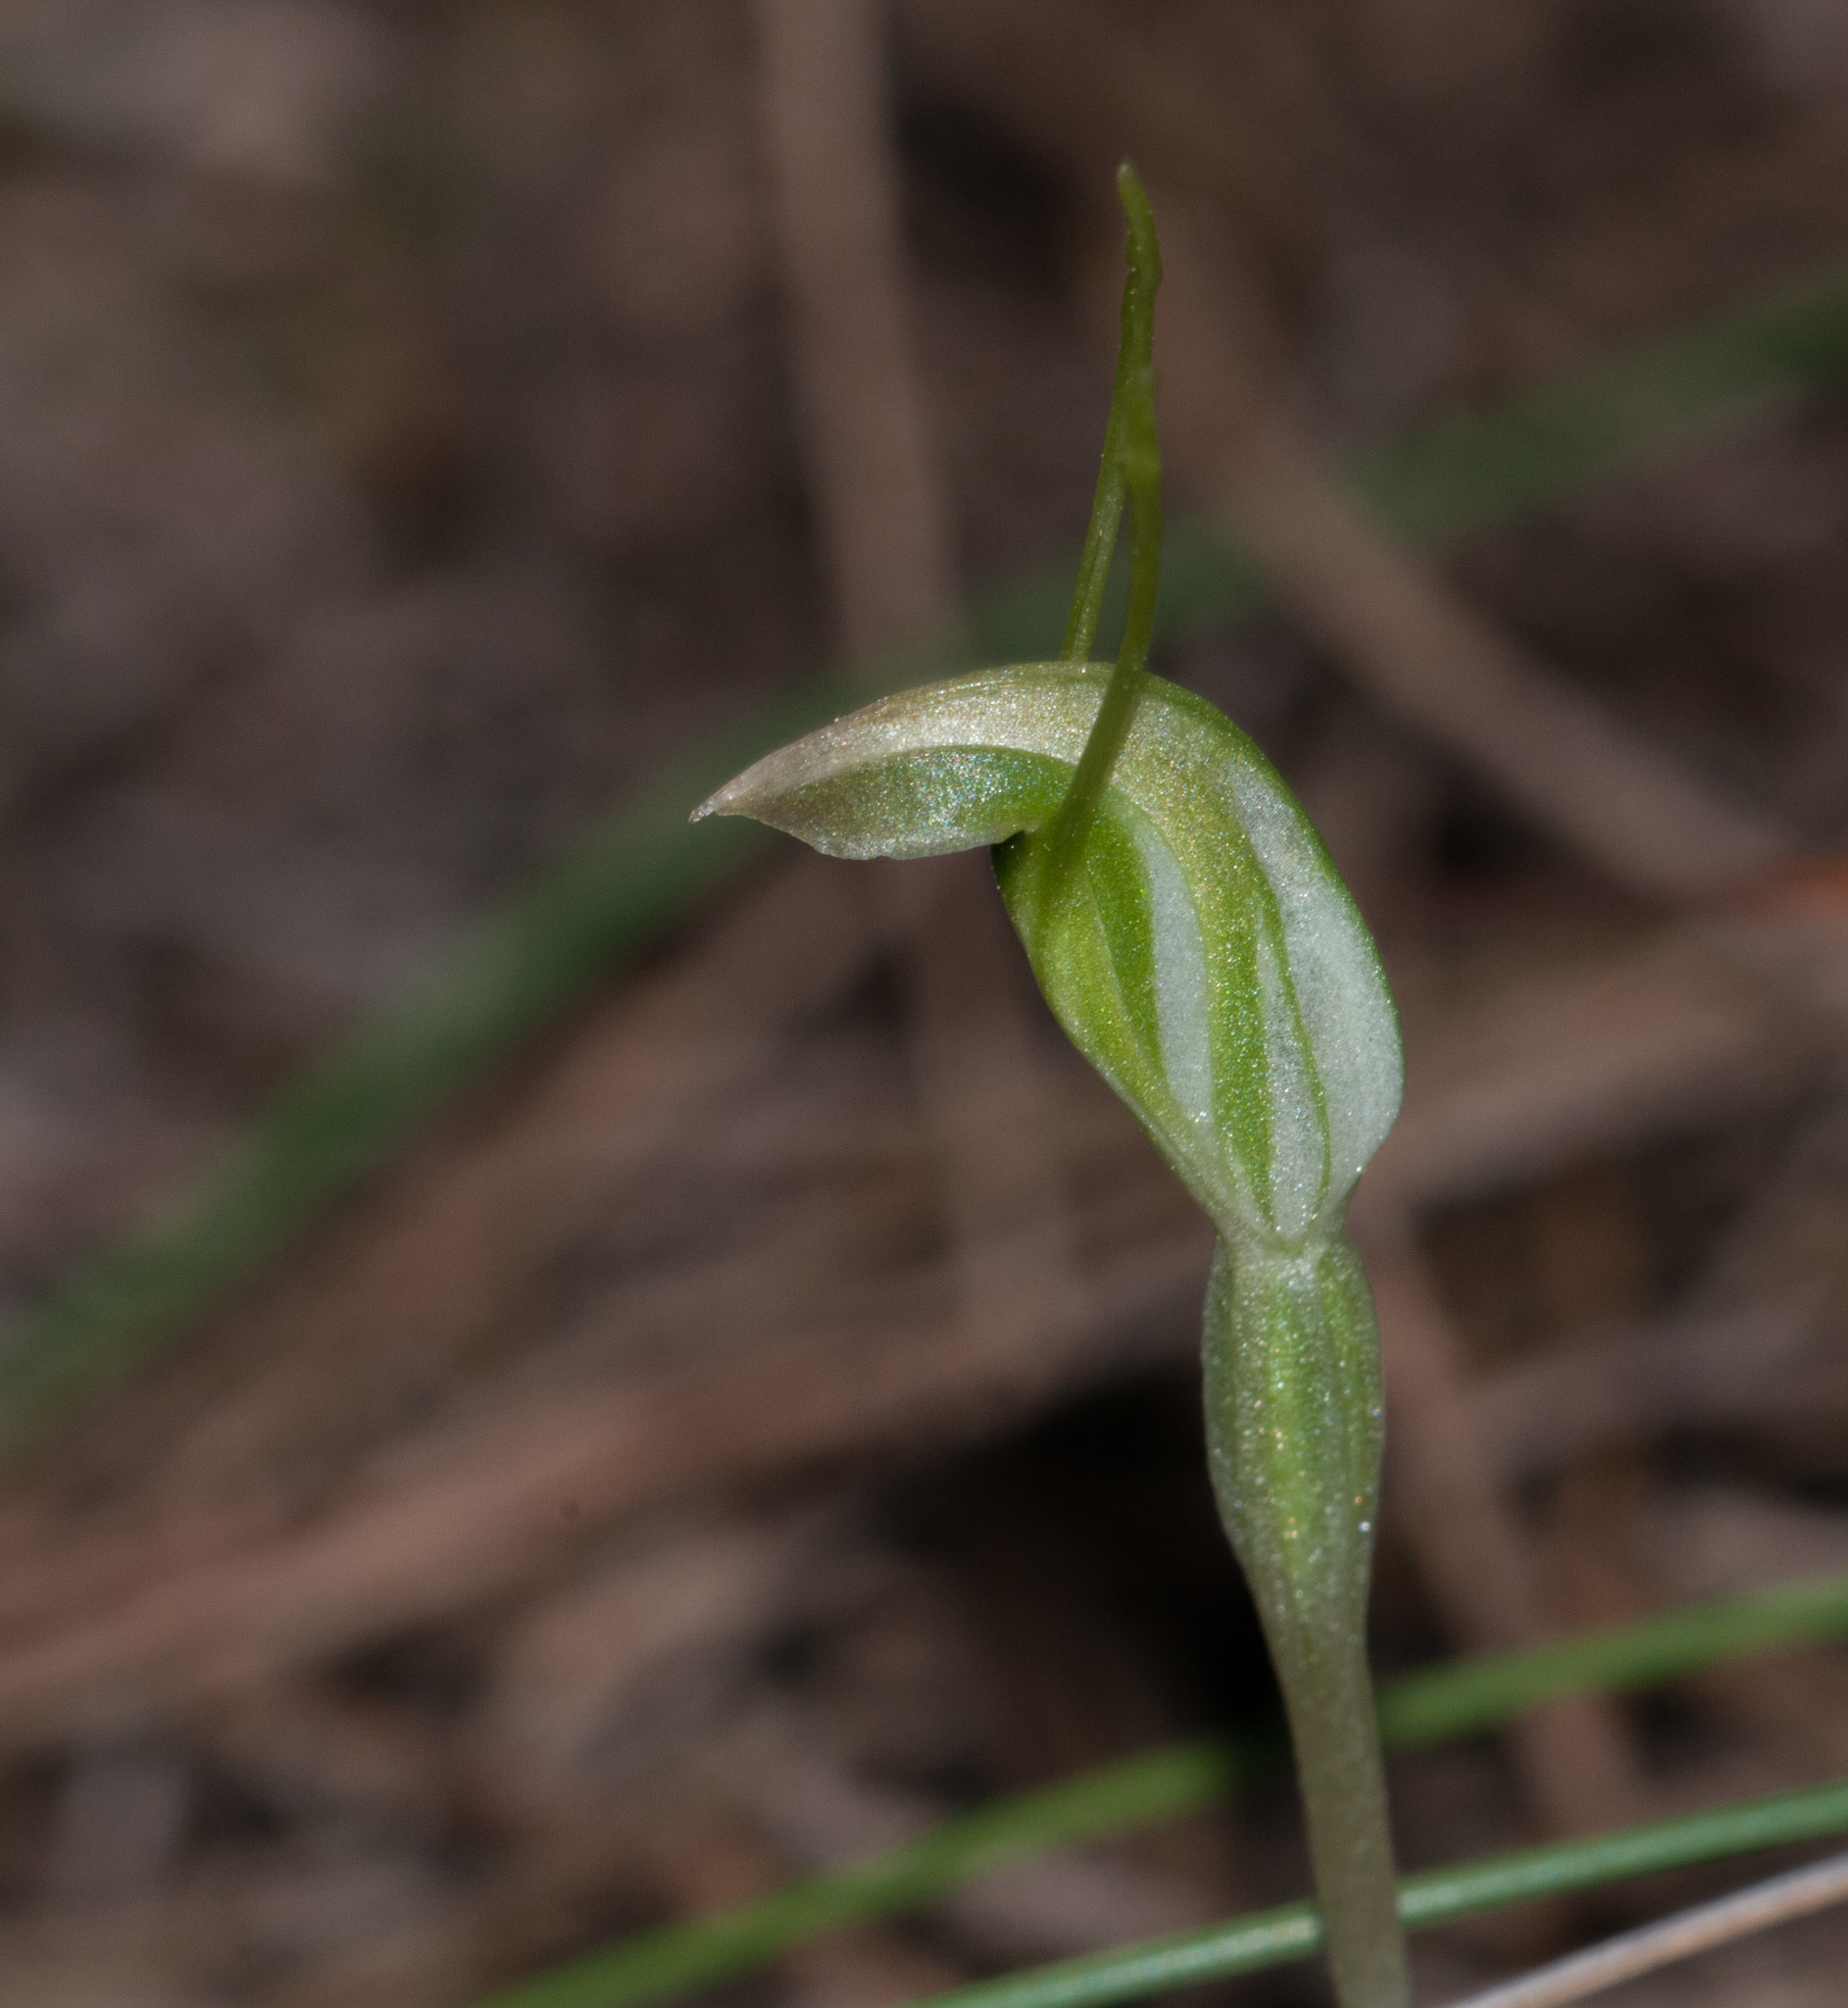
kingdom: Plantae
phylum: Tracheophyta
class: Liliopsida
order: Asparagales
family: Orchidaceae
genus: Pterostylis
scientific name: Pterostylis nana
